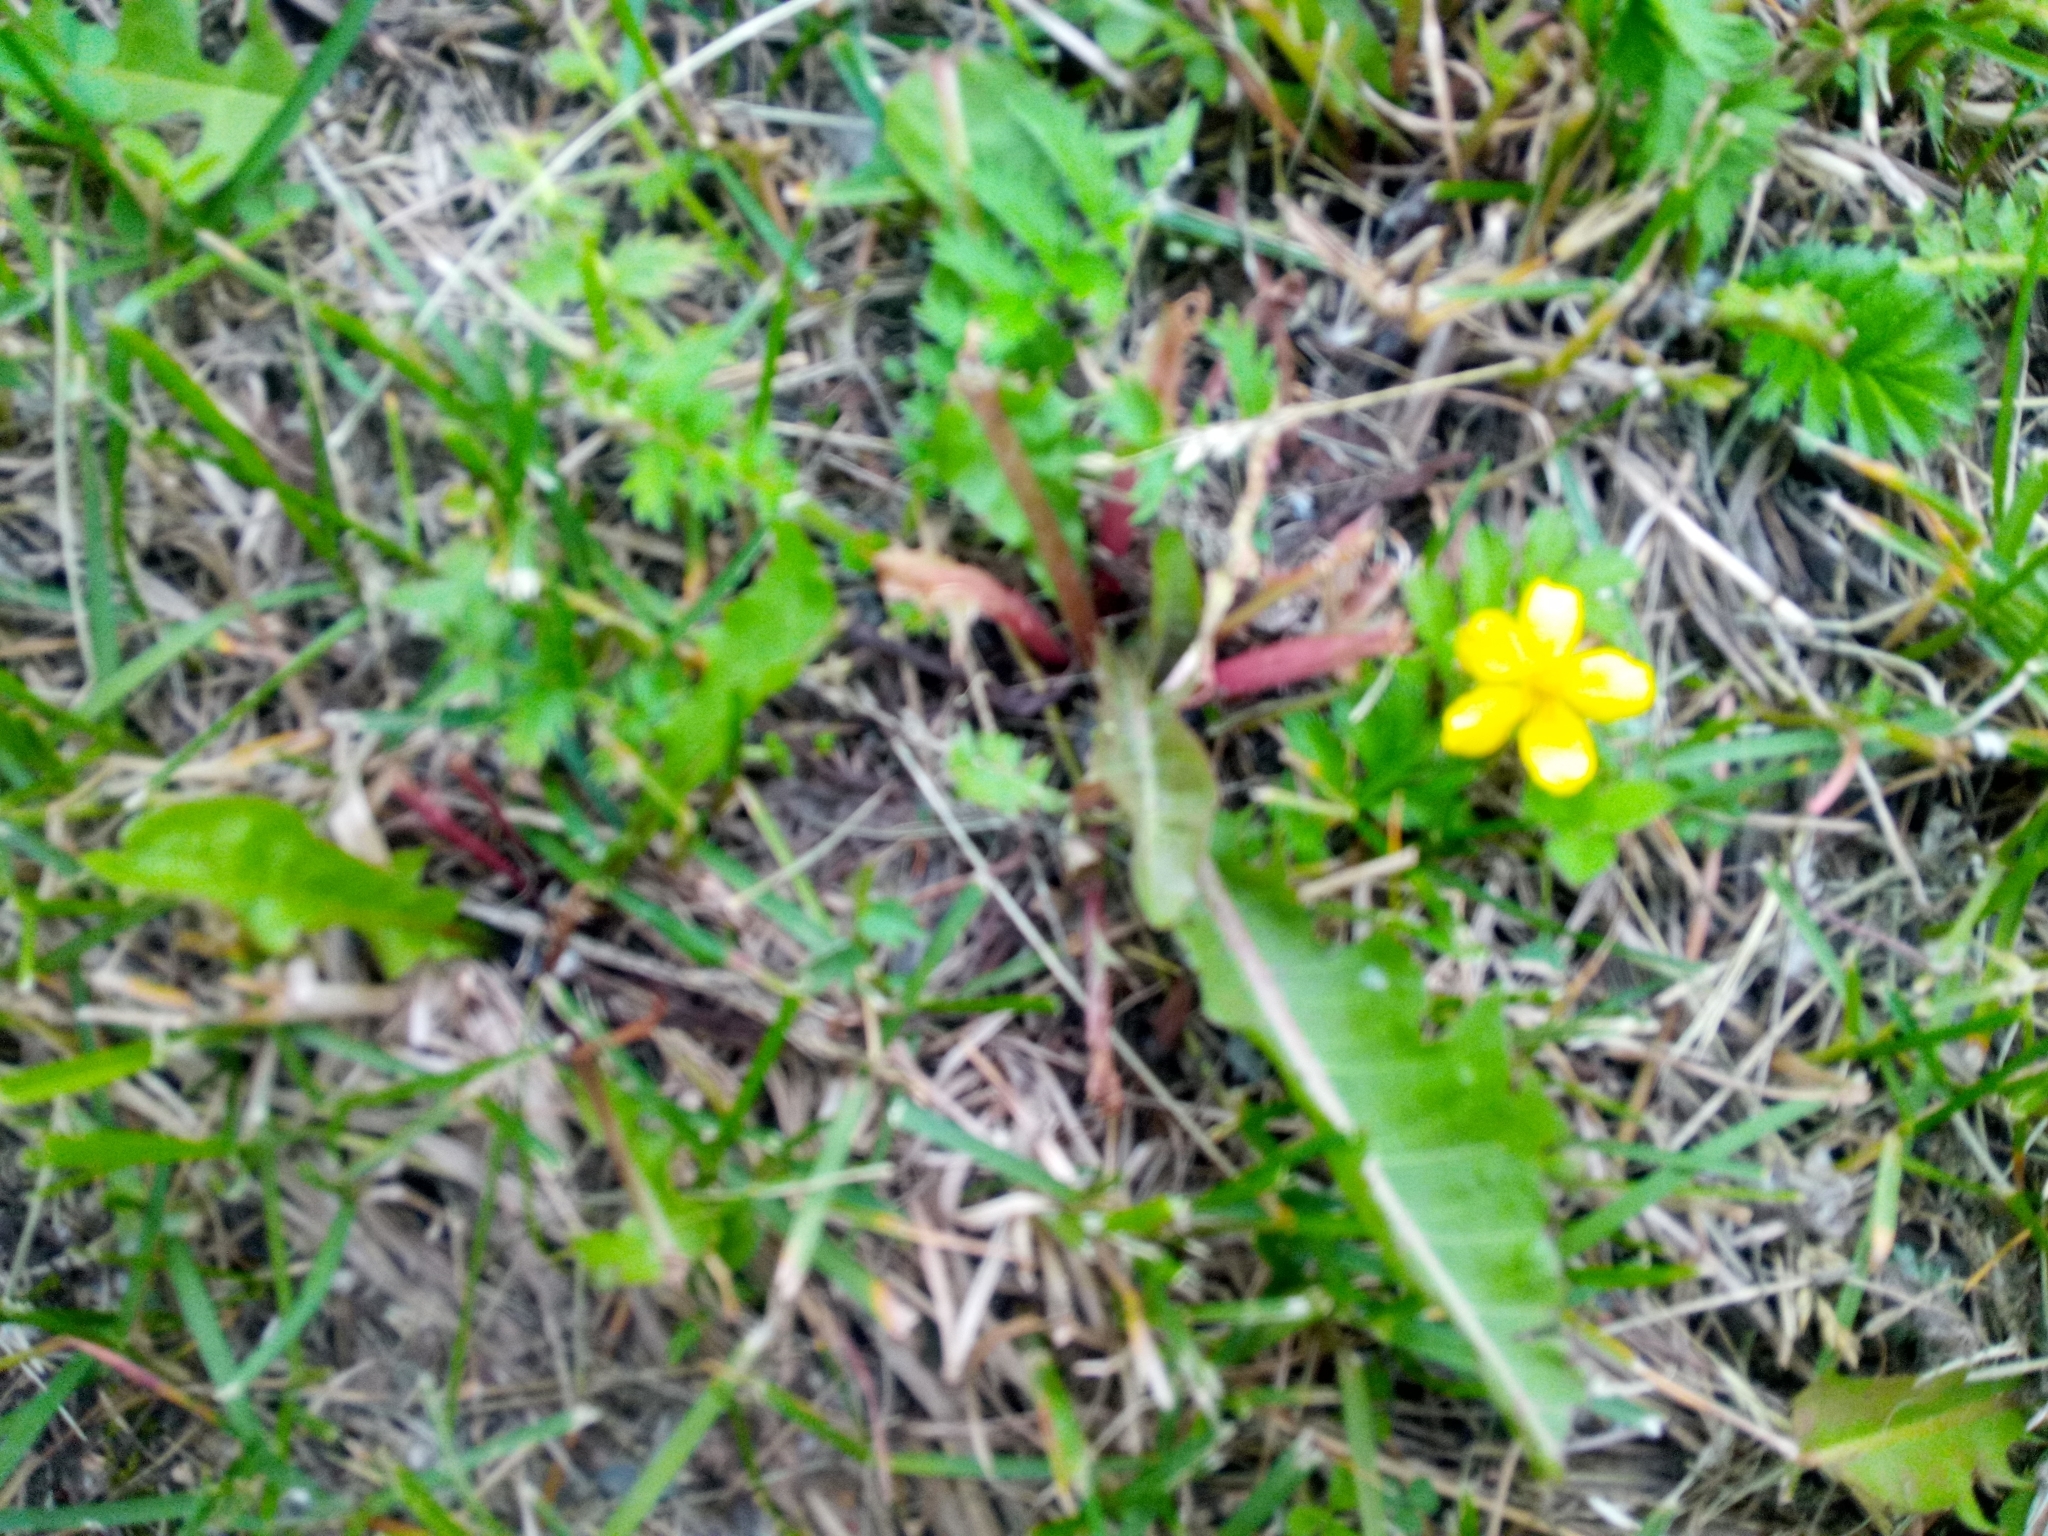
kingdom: Plantae
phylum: Tracheophyta
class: Magnoliopsida
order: Rosales
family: Rosaceae
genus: Argentina
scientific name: Argentina anserina
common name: Common silverweed
